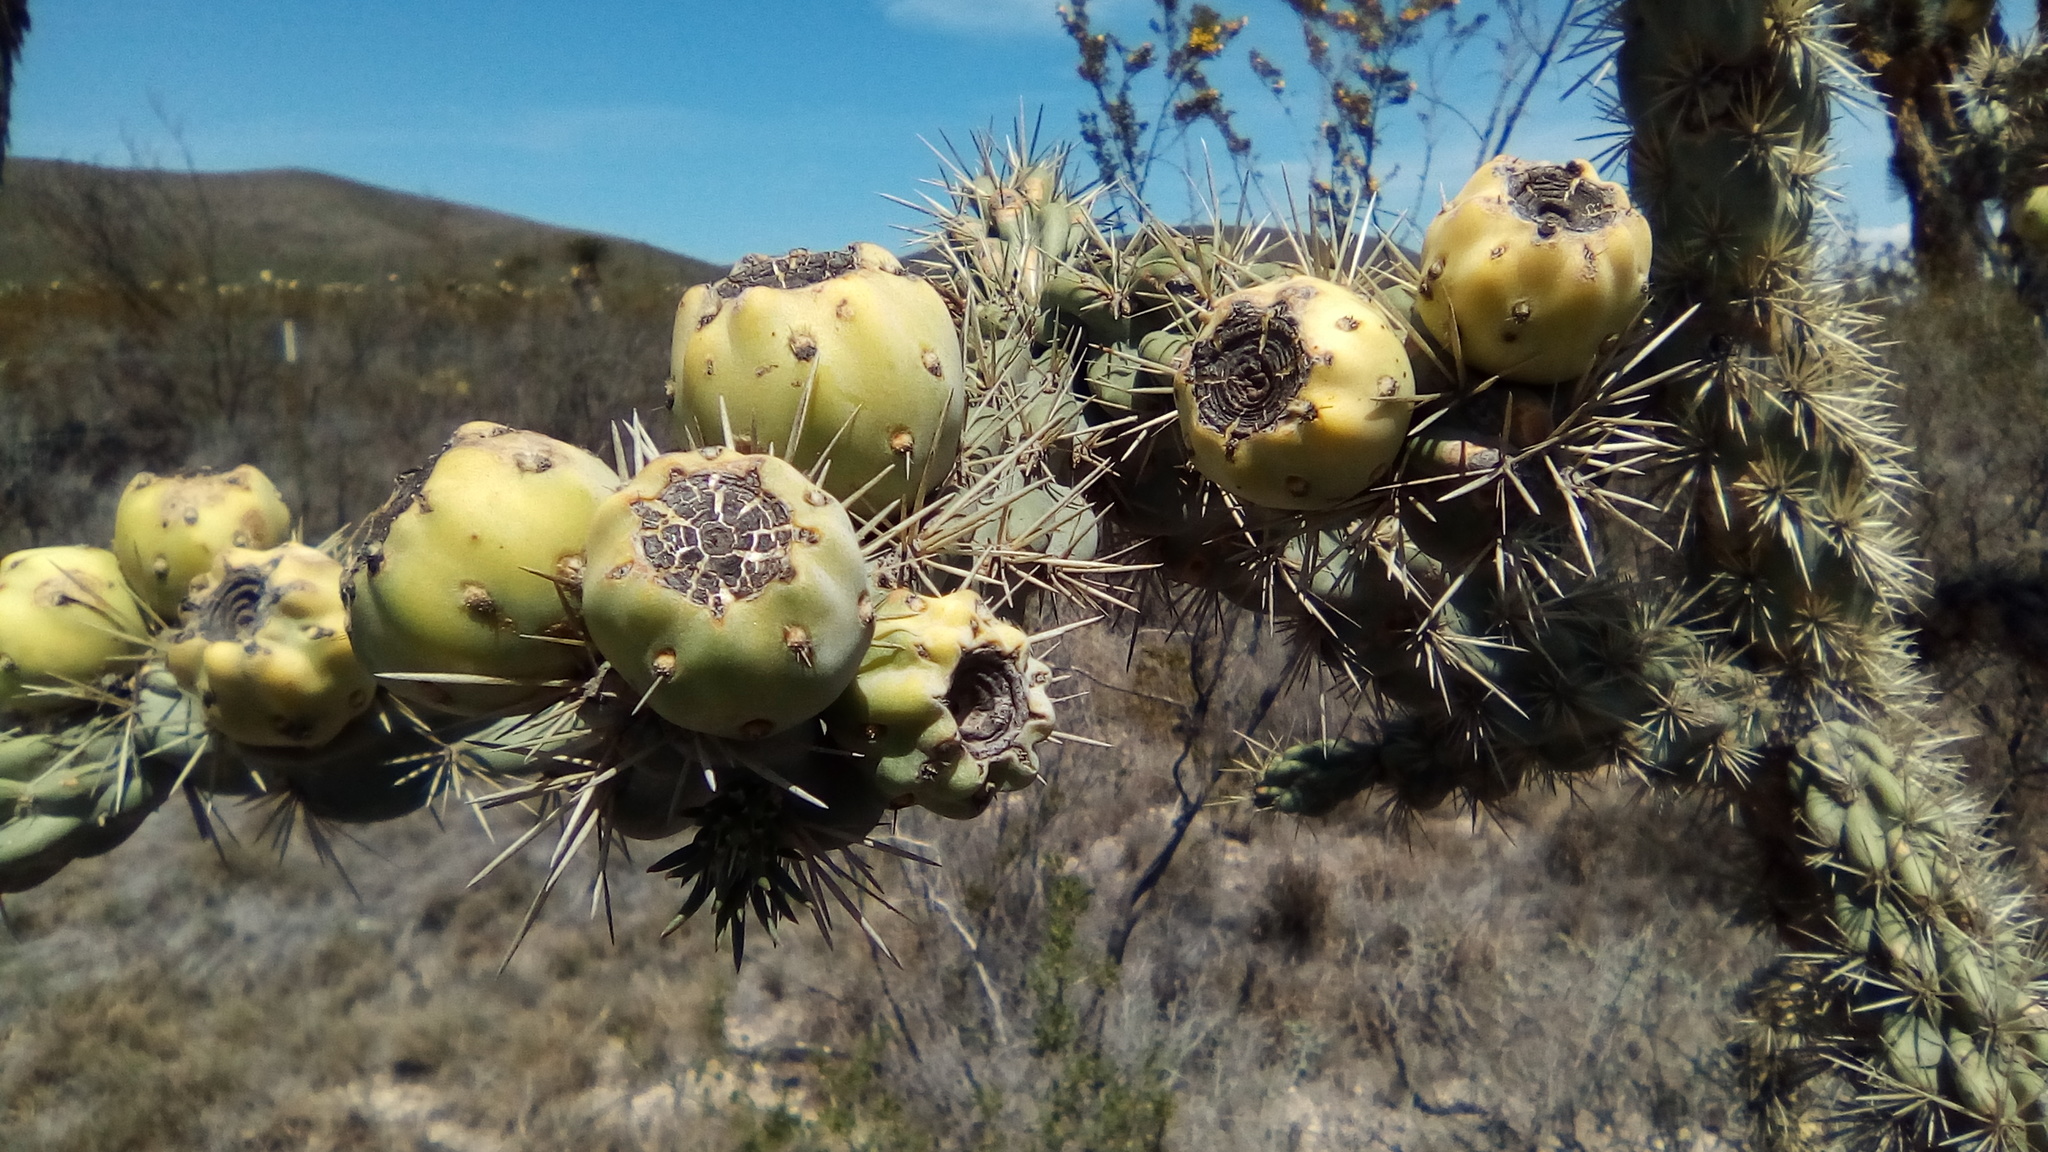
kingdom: Plantae
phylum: Tracheophyta
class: Magnoliopsida
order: Caryophyllales
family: Cactaceae
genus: Cylindropuntia
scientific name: Cylindropuntia imbricata
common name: Candelabrum cactus
